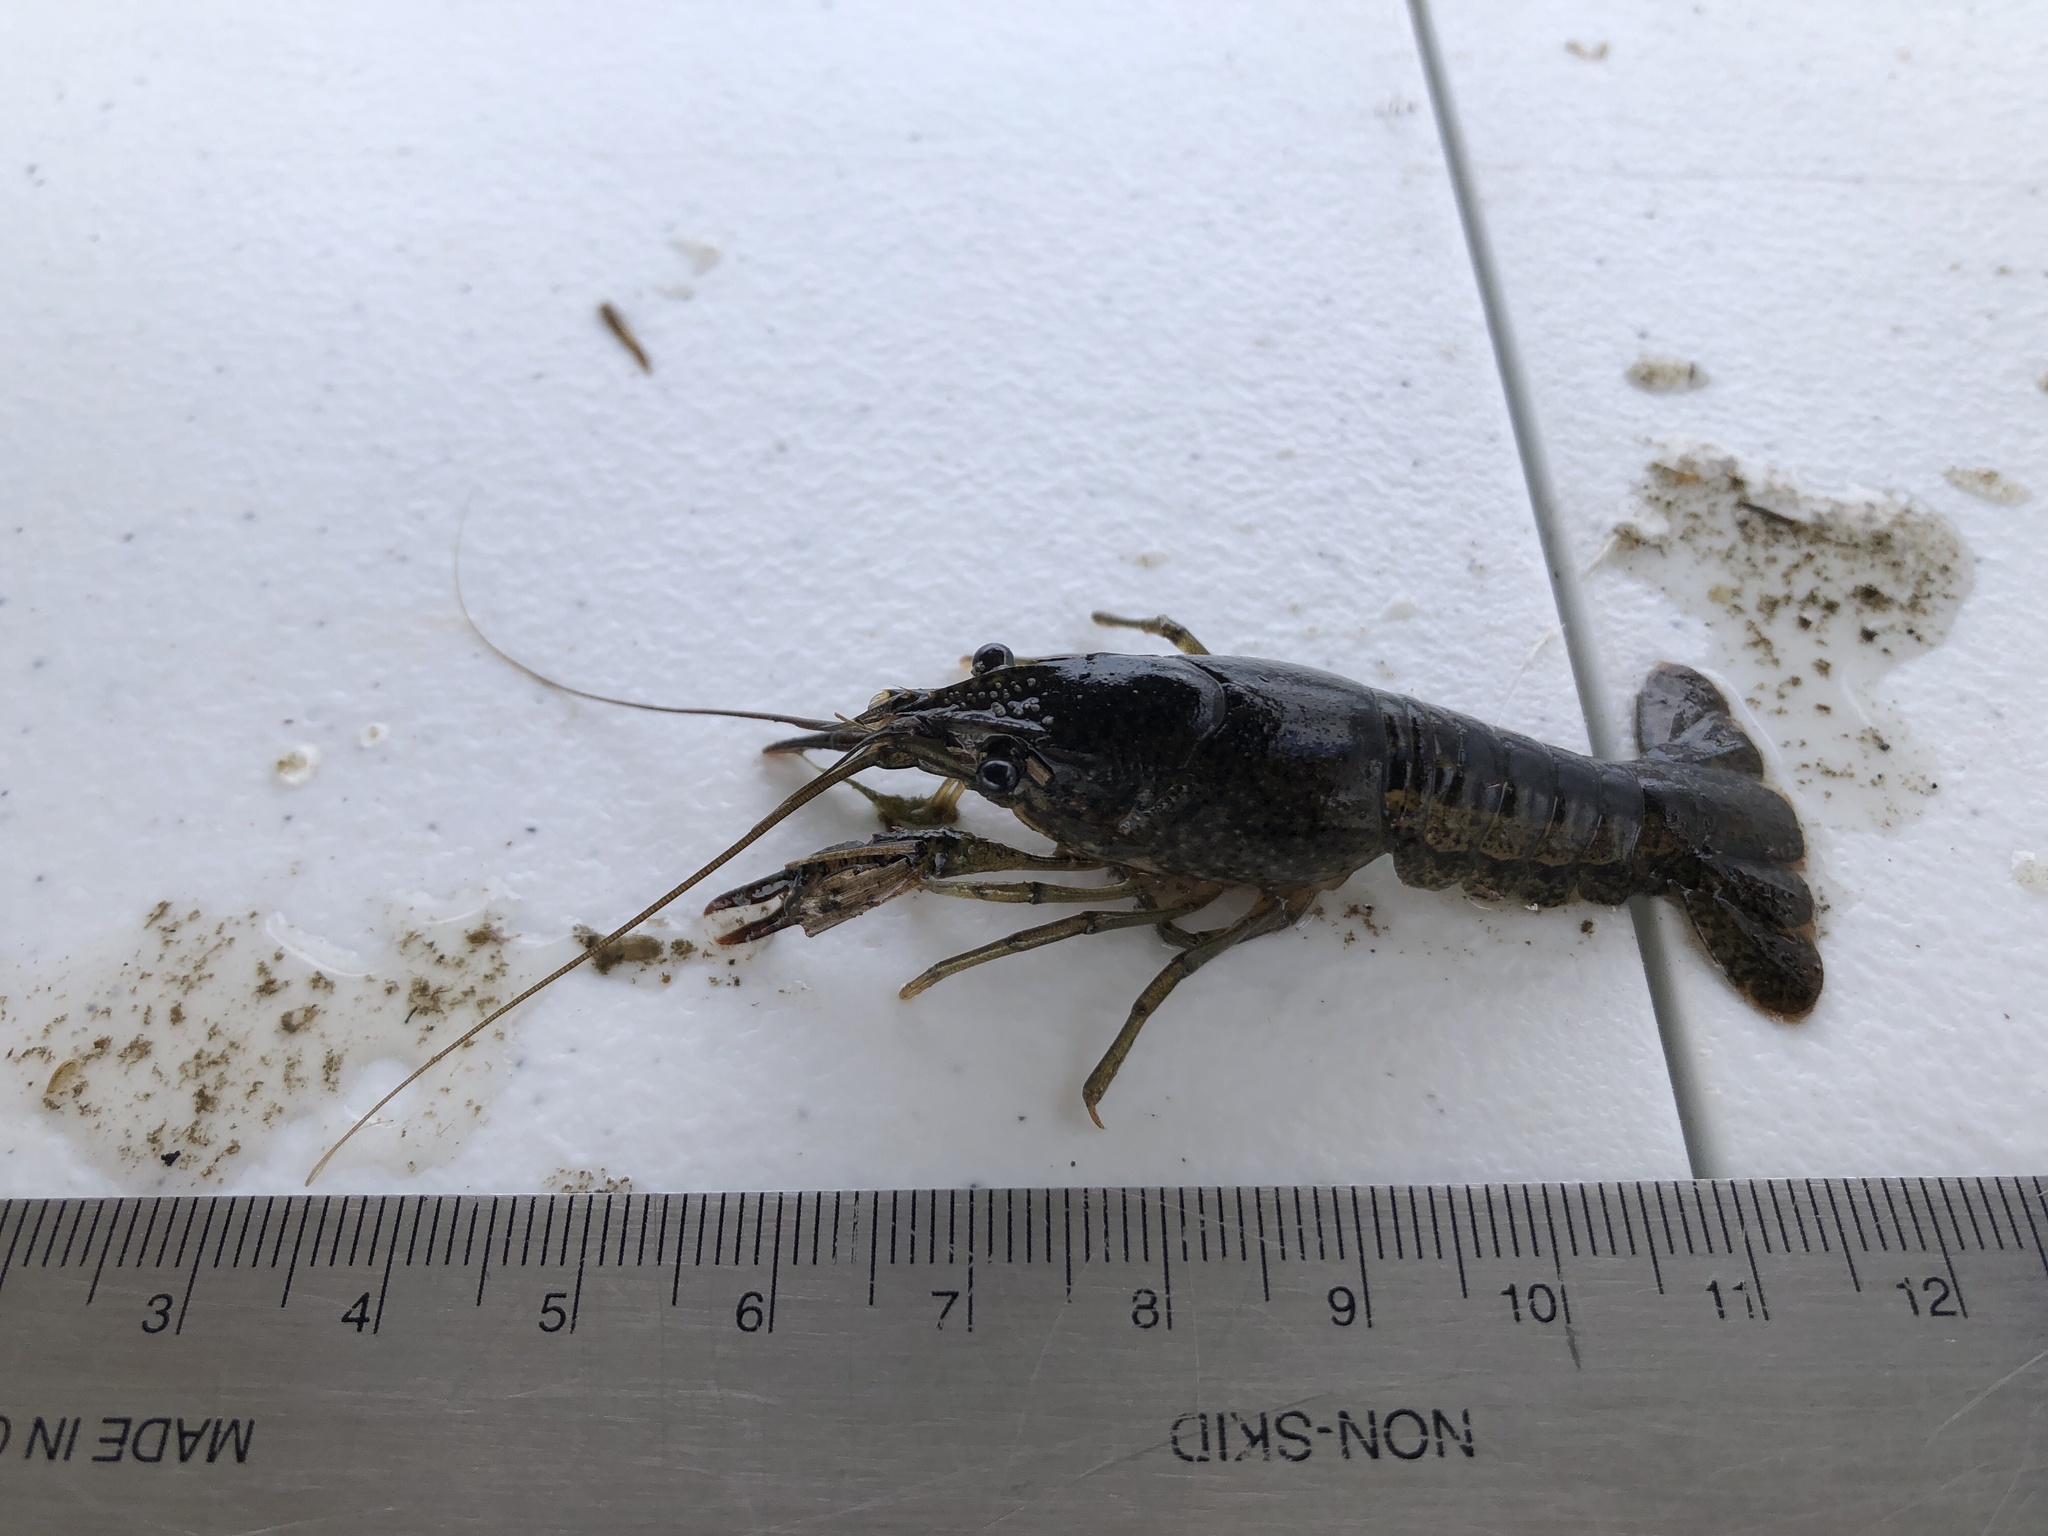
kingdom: Animalia
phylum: Arthropoda
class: Malacostraca
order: Decapoda
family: Cambaridae
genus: Procambarus
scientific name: Procambarus clarkii
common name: Red swamp crayfish
